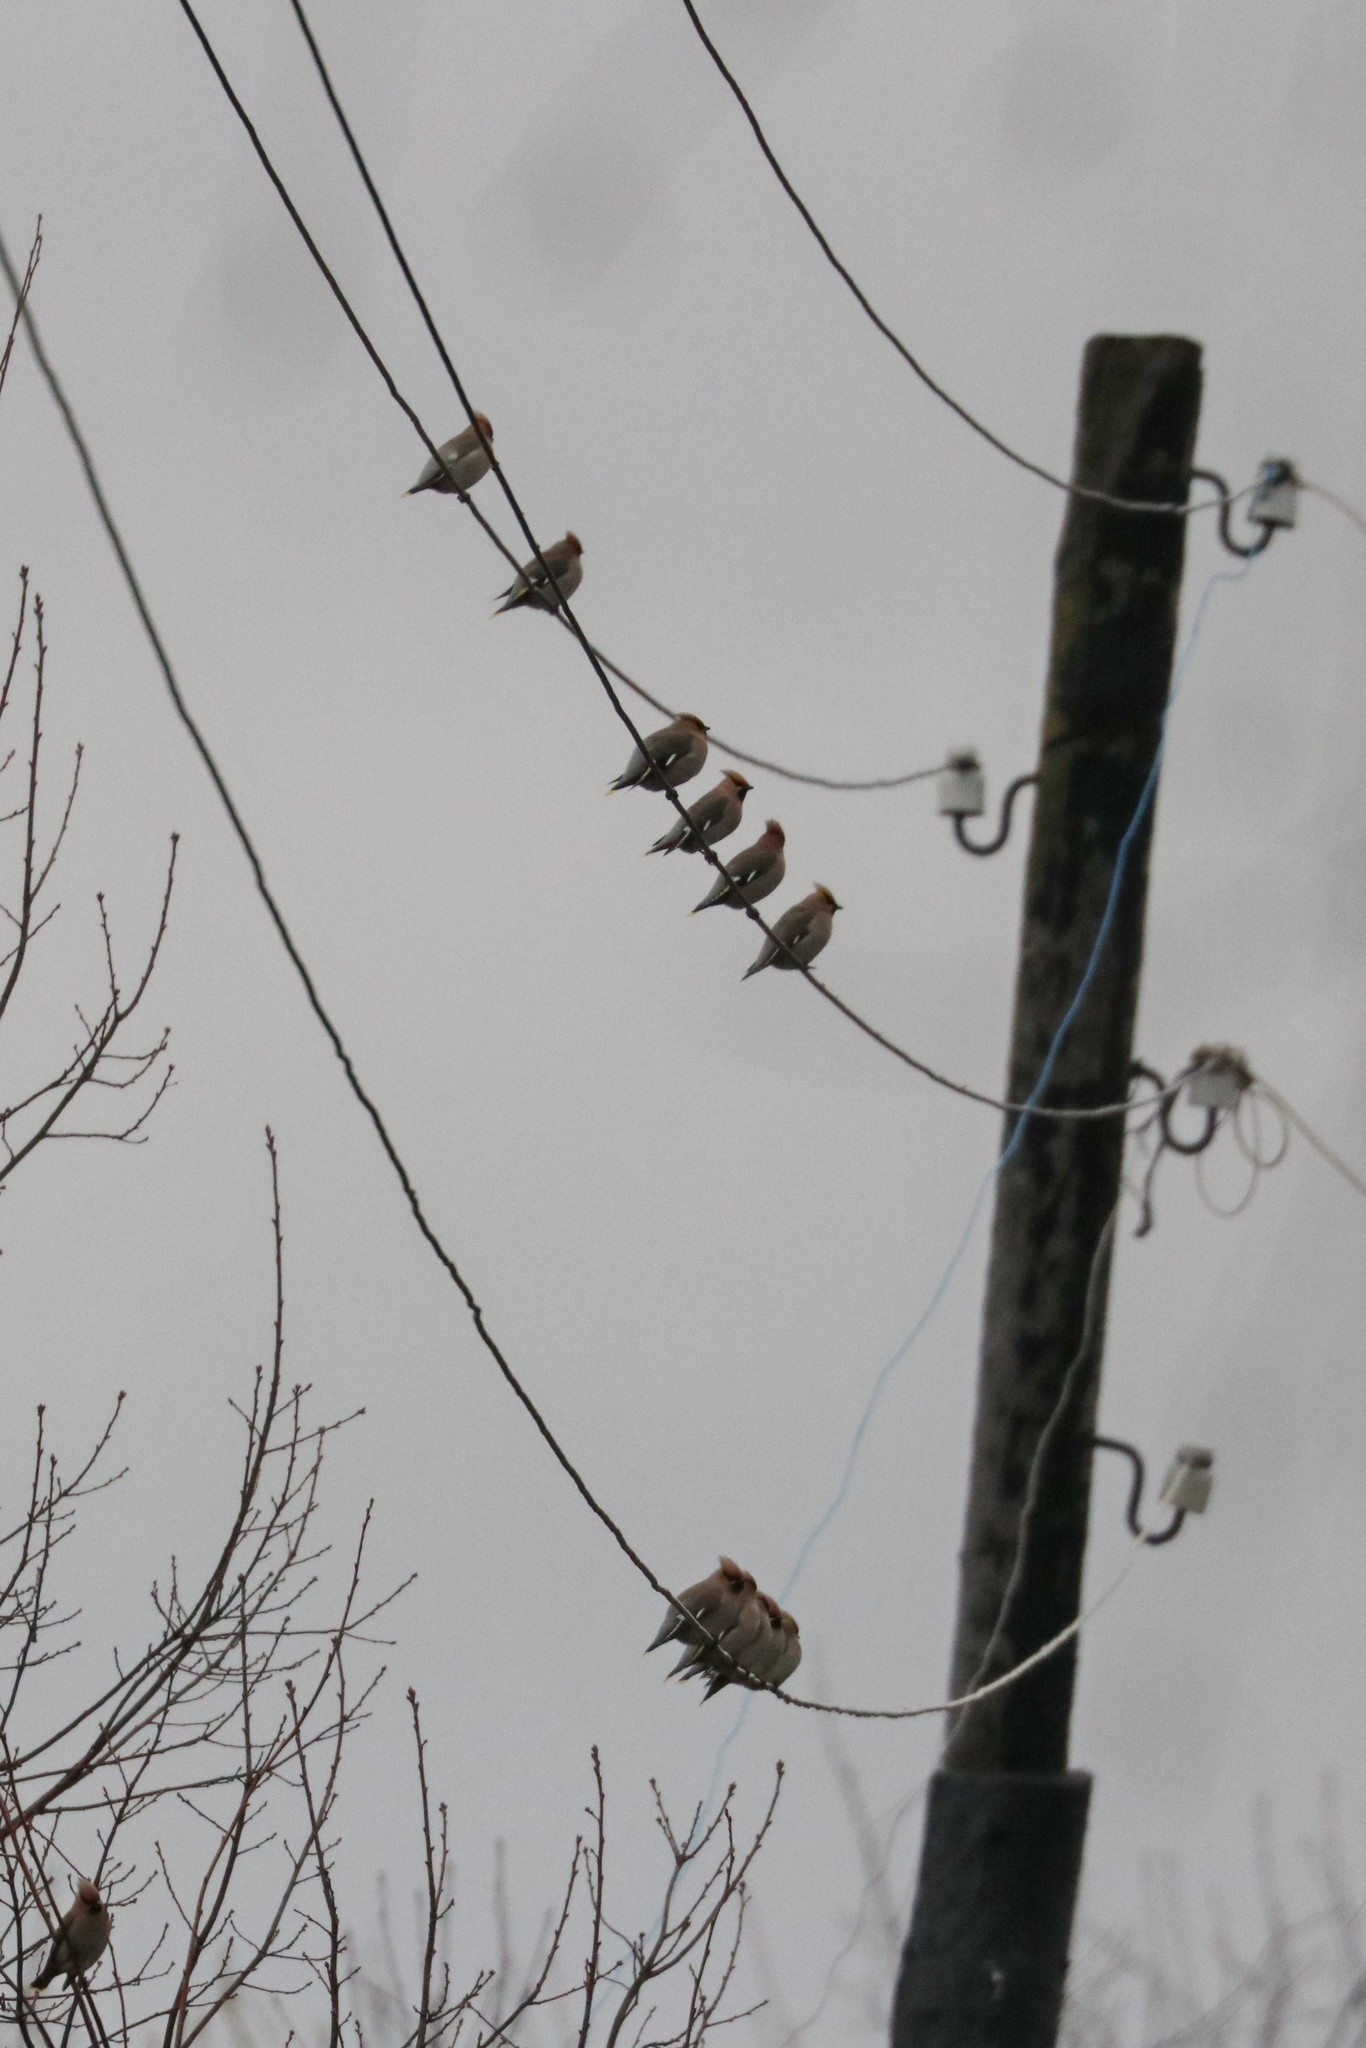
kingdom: Animalia
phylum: Chordata
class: Aves
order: Passeriformes
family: Bombycillidae
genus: Bombycilla
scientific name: Bombycilla garrulus
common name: Bohemian waxwing
